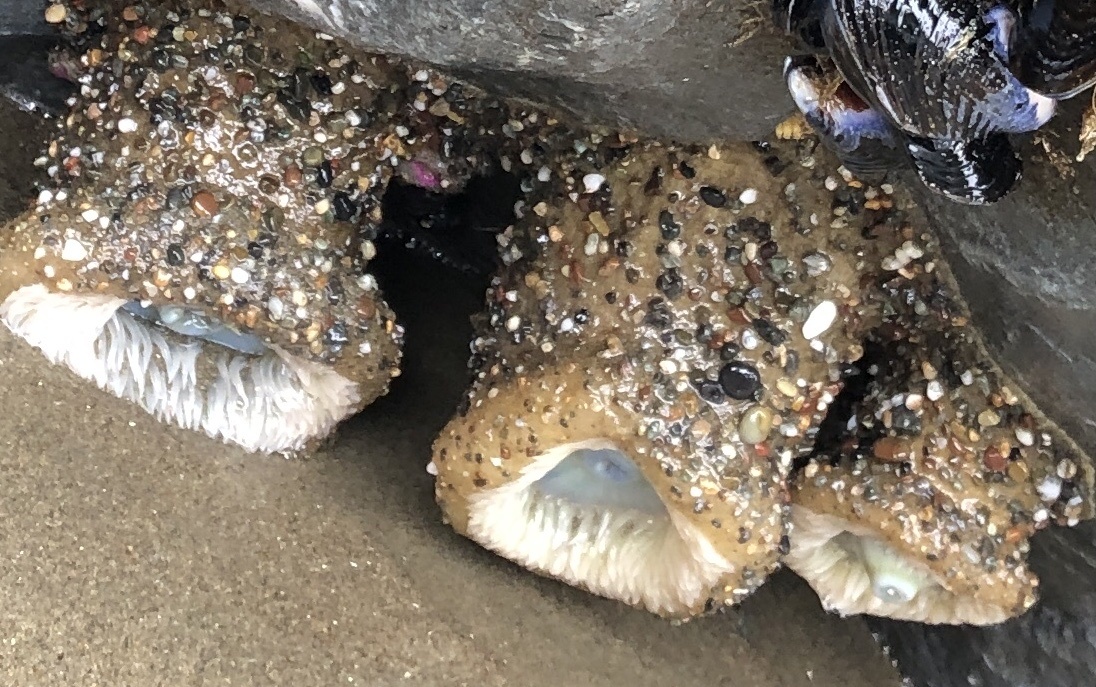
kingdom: Animalia
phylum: Cnidaria
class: Anthozoa
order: Actiniaria
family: Actiniidae
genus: Anthopleura
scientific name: Anthopleura xanthogrammica
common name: Giant green anemone
